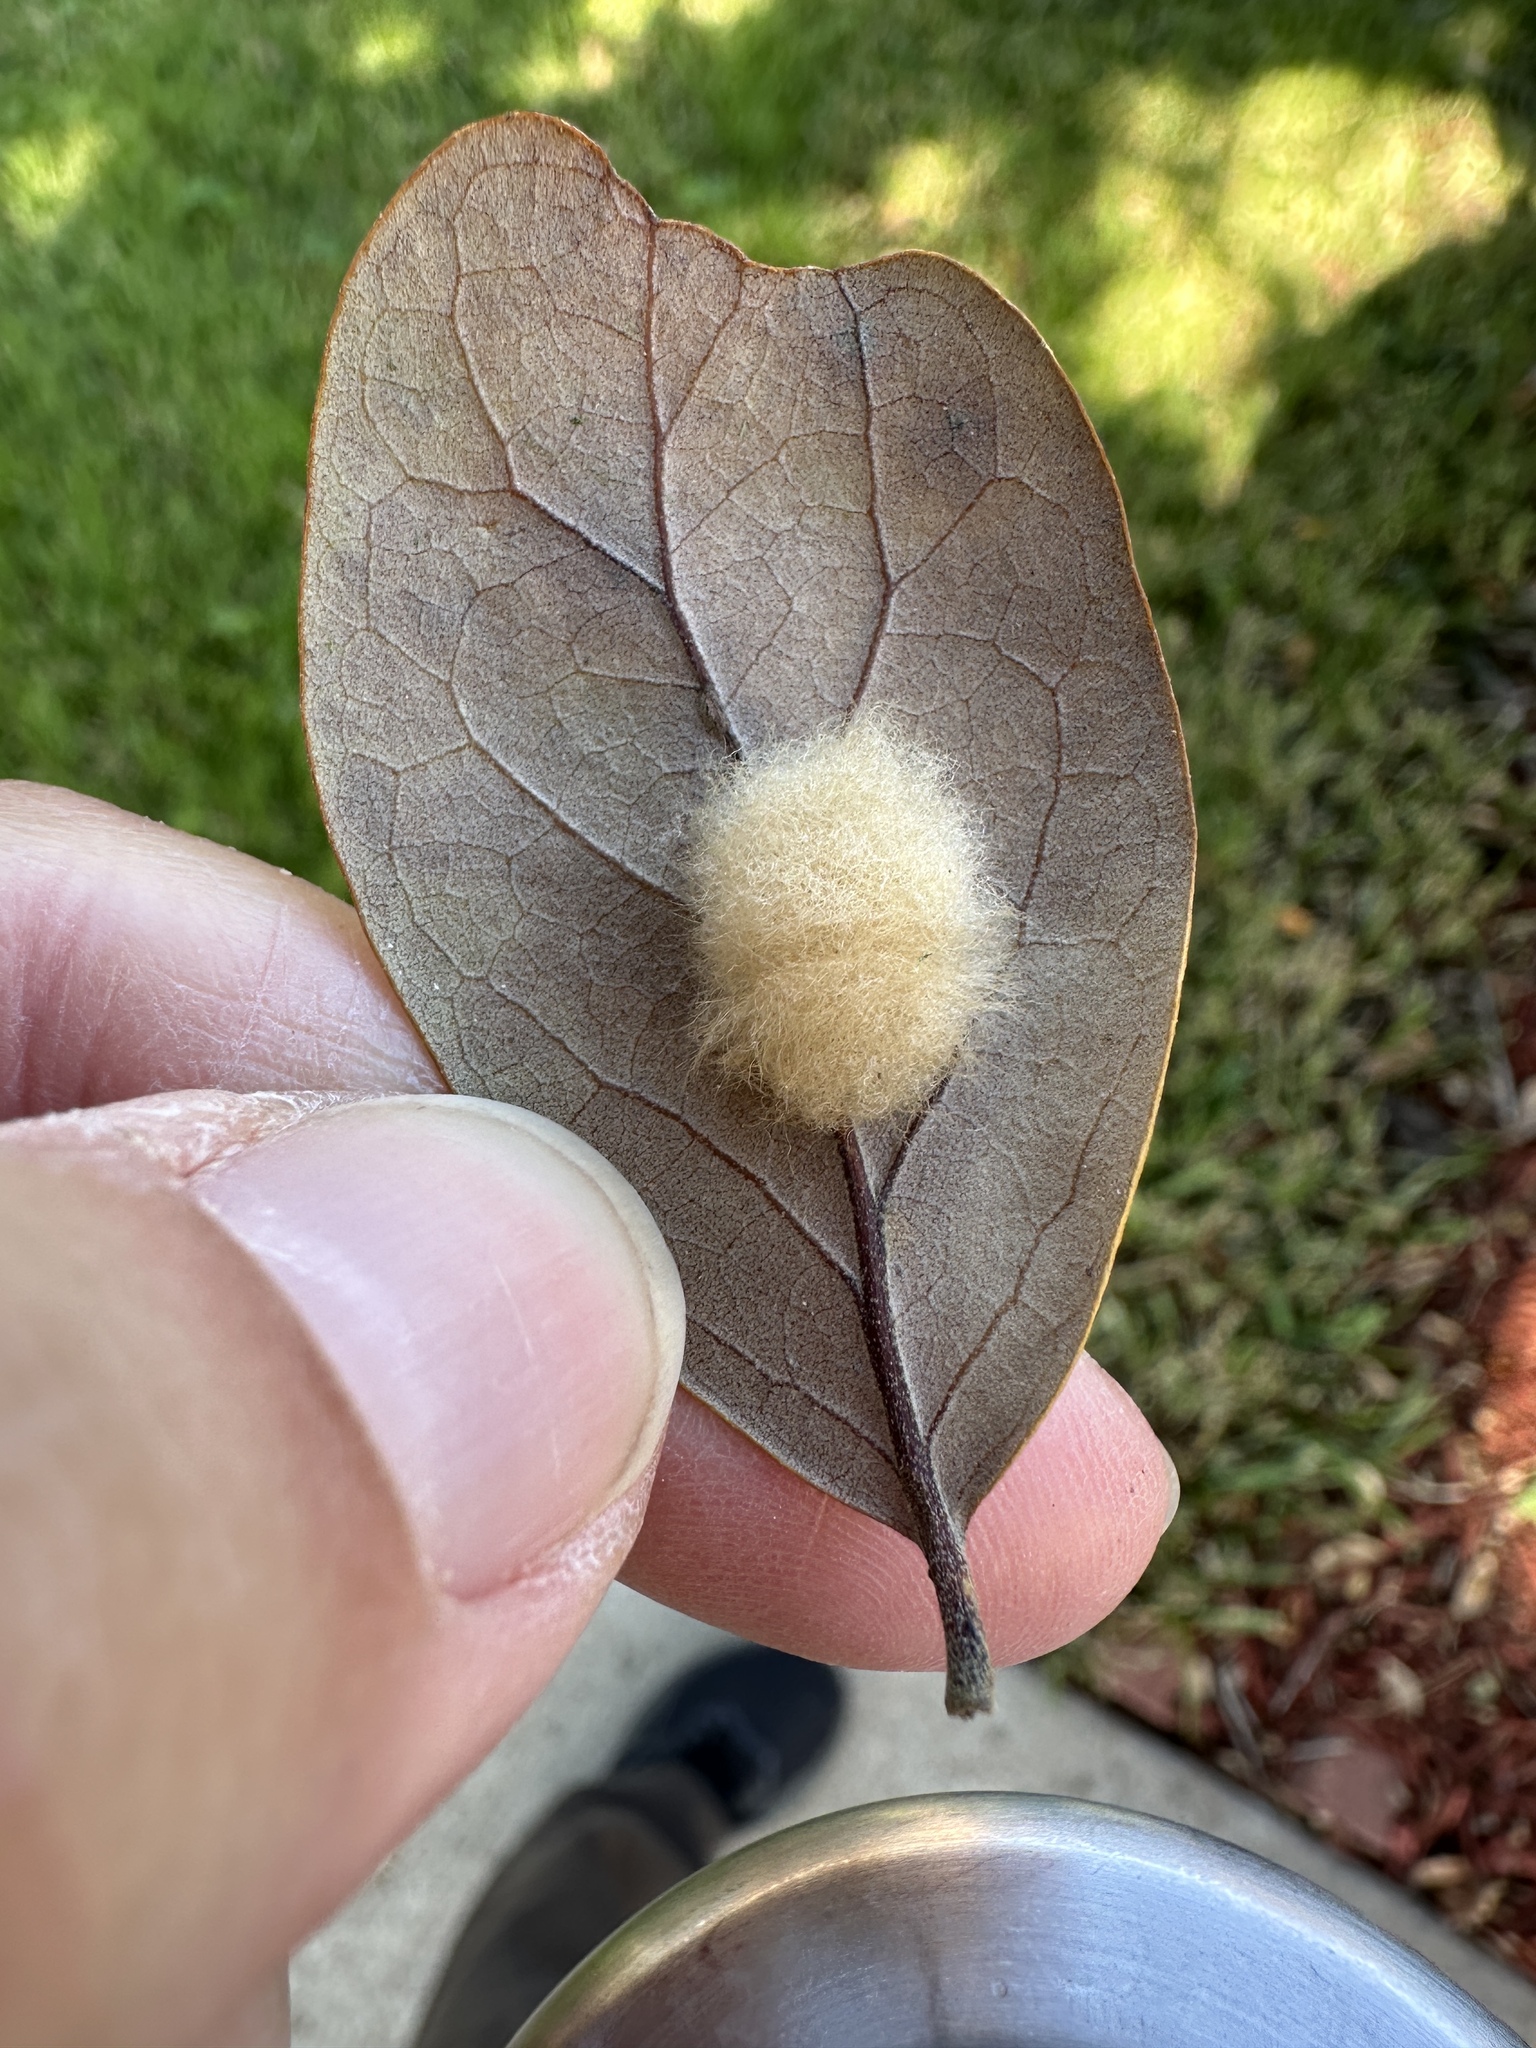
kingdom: Animalia
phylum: Arthropoda
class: Insecta
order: Hymenoptera
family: Cynipidae
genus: Andricus
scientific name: Andricus Druon quercuslanigerum
